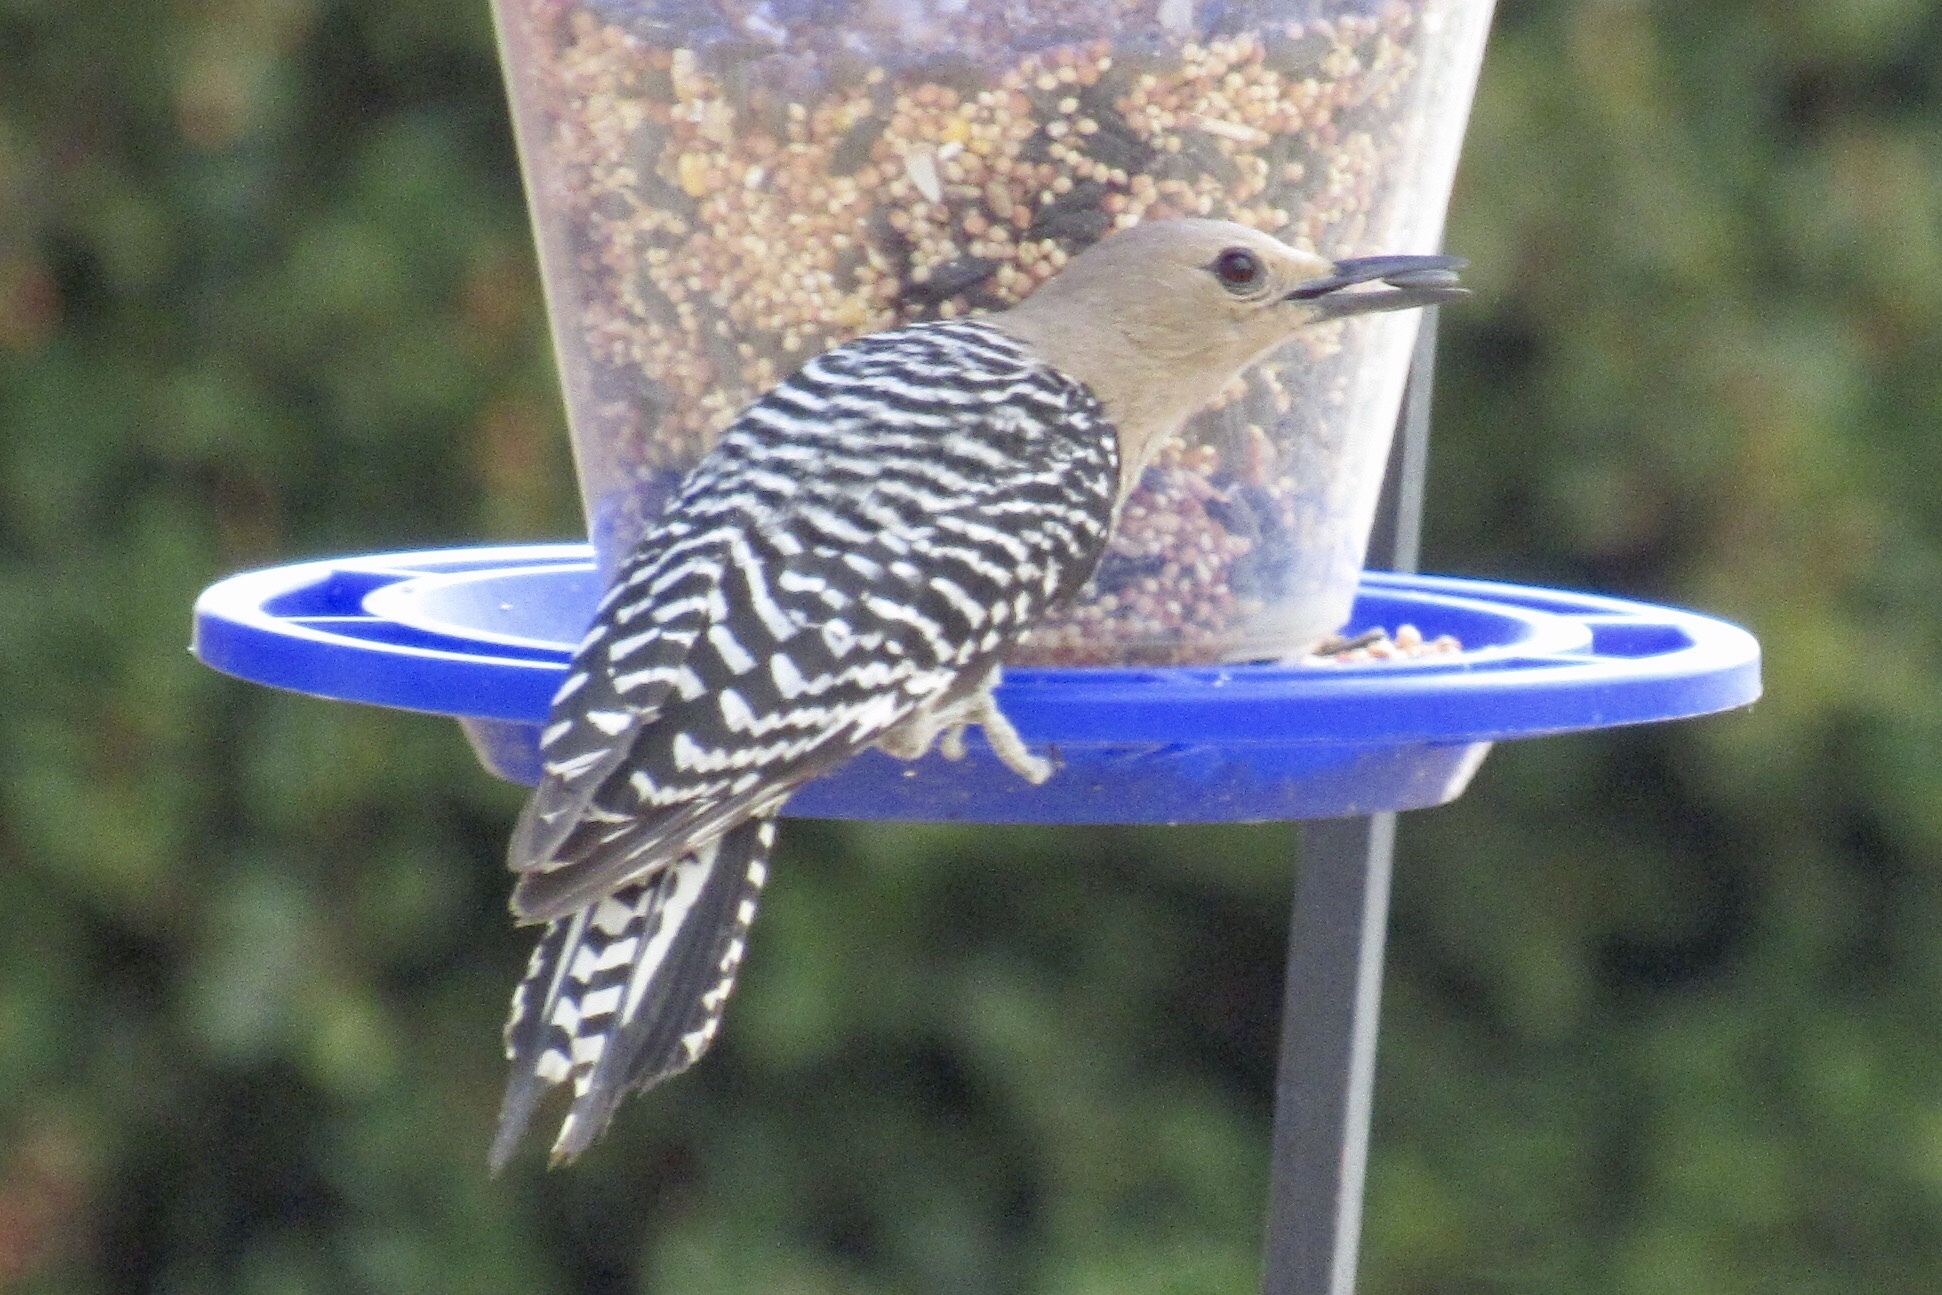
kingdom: Animalia
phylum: Chordata
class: Aves
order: Piciformes
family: Picidae
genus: Melanerpes
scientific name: Melanerpes uropygialis
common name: Gila woodpecker
